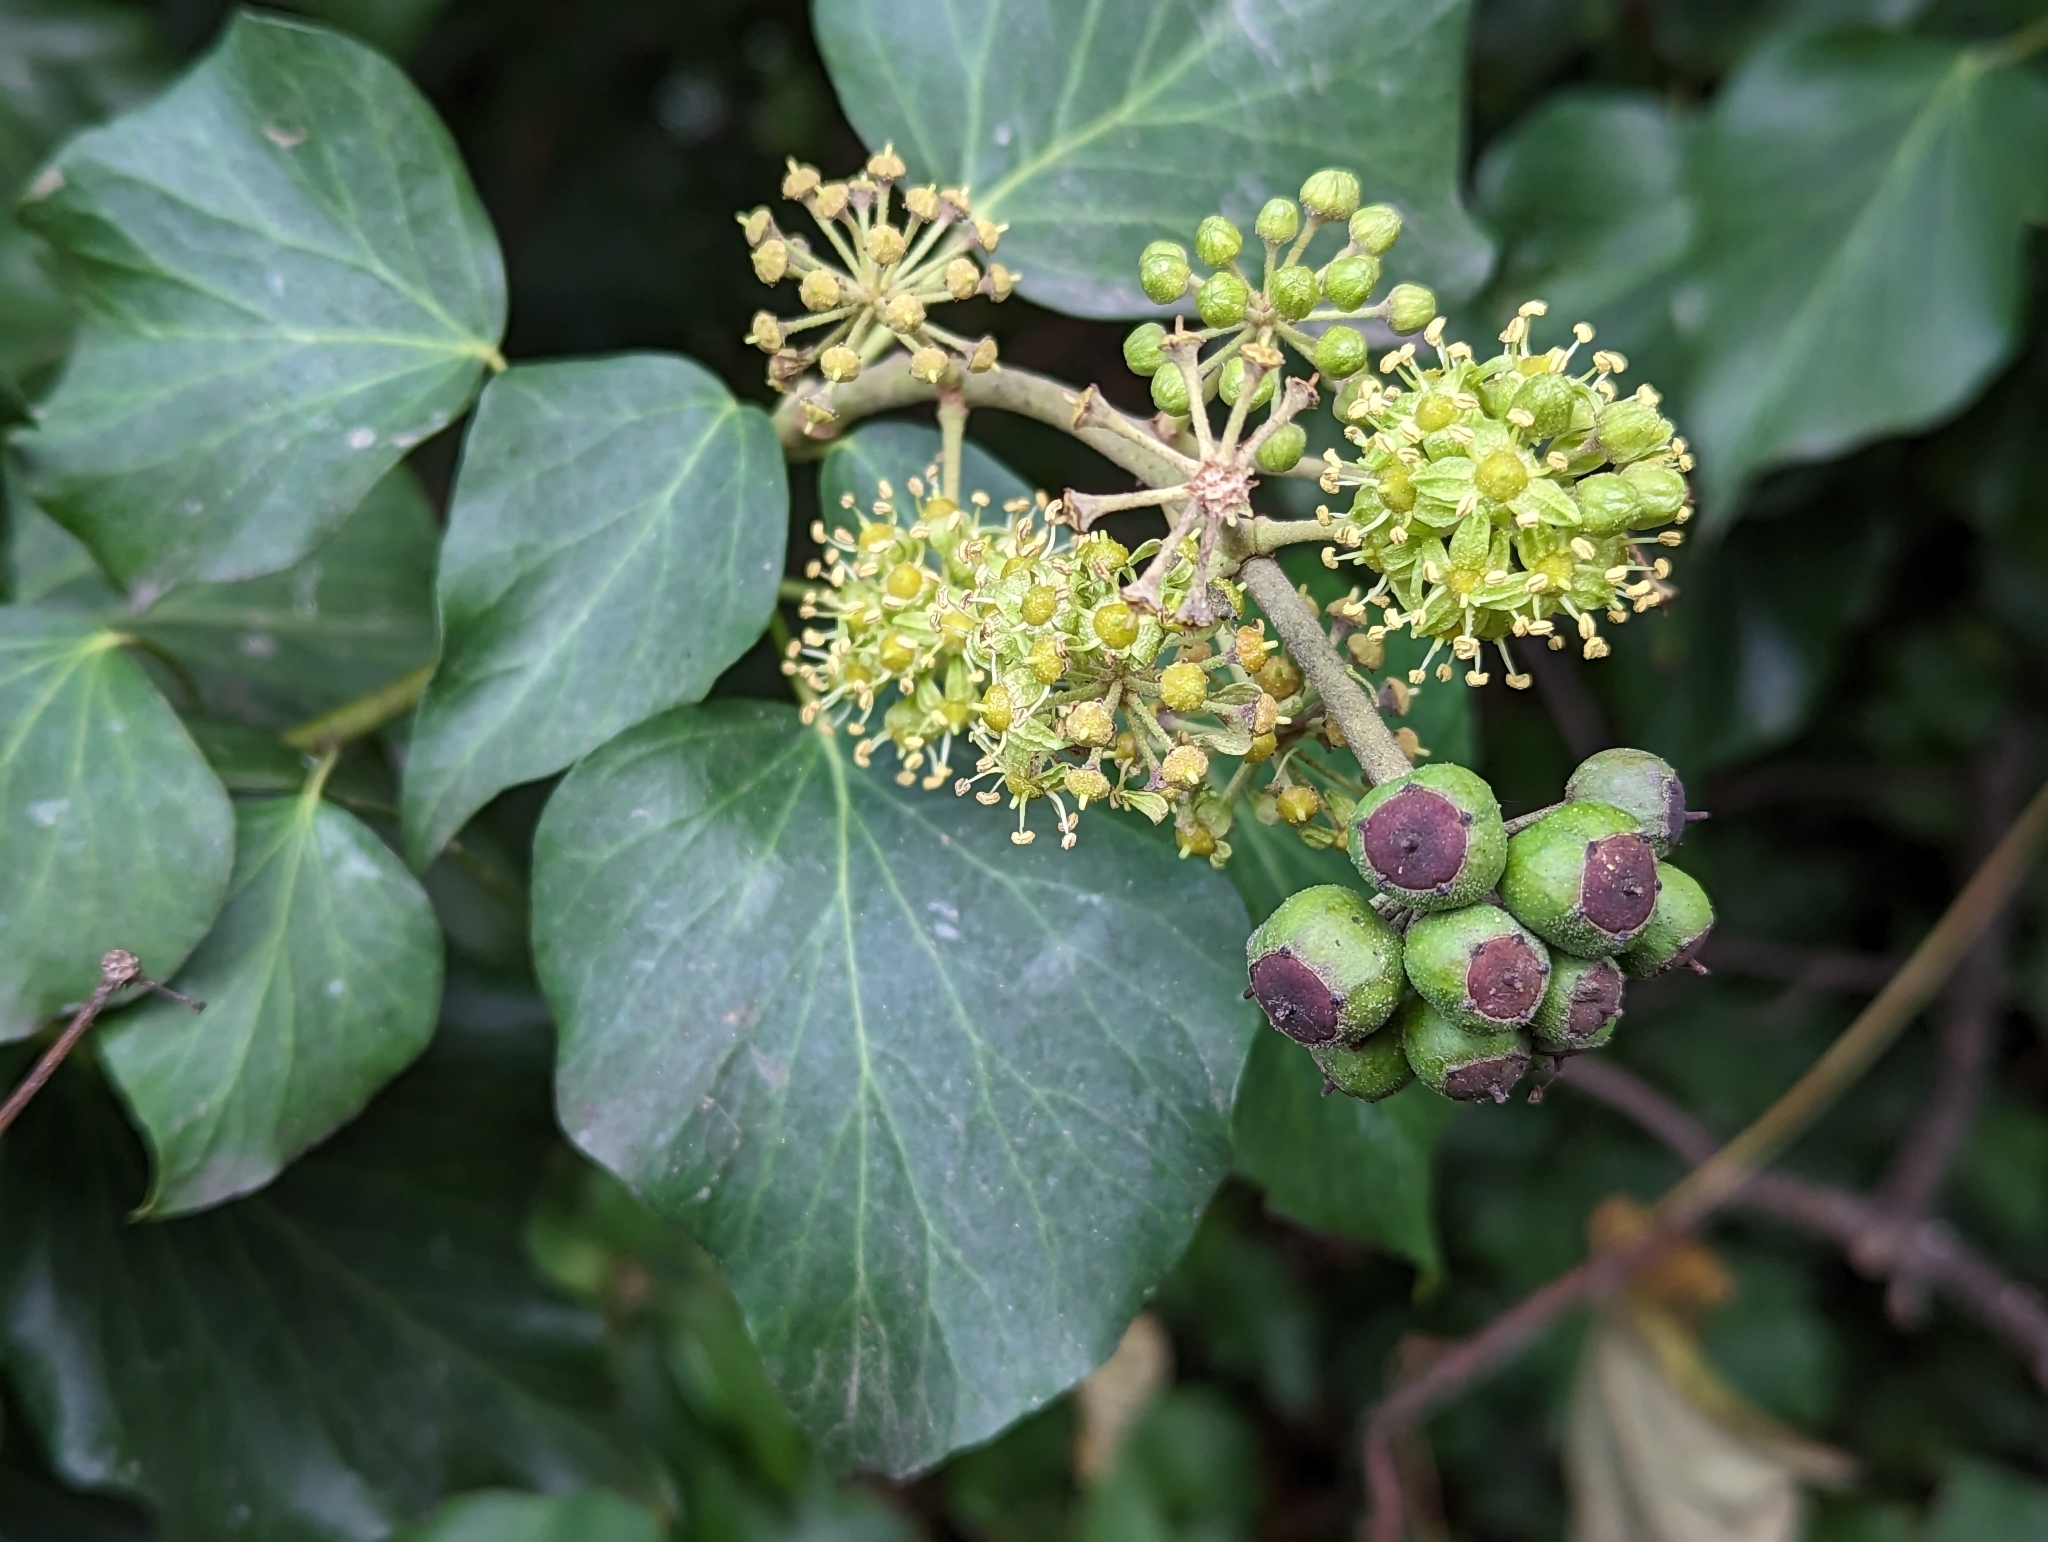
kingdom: Plantae
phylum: Tracheophyta
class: Magnoliopsida
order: Apiales
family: Araliaceae
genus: Hedera
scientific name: Hedera helix
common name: Ivy
